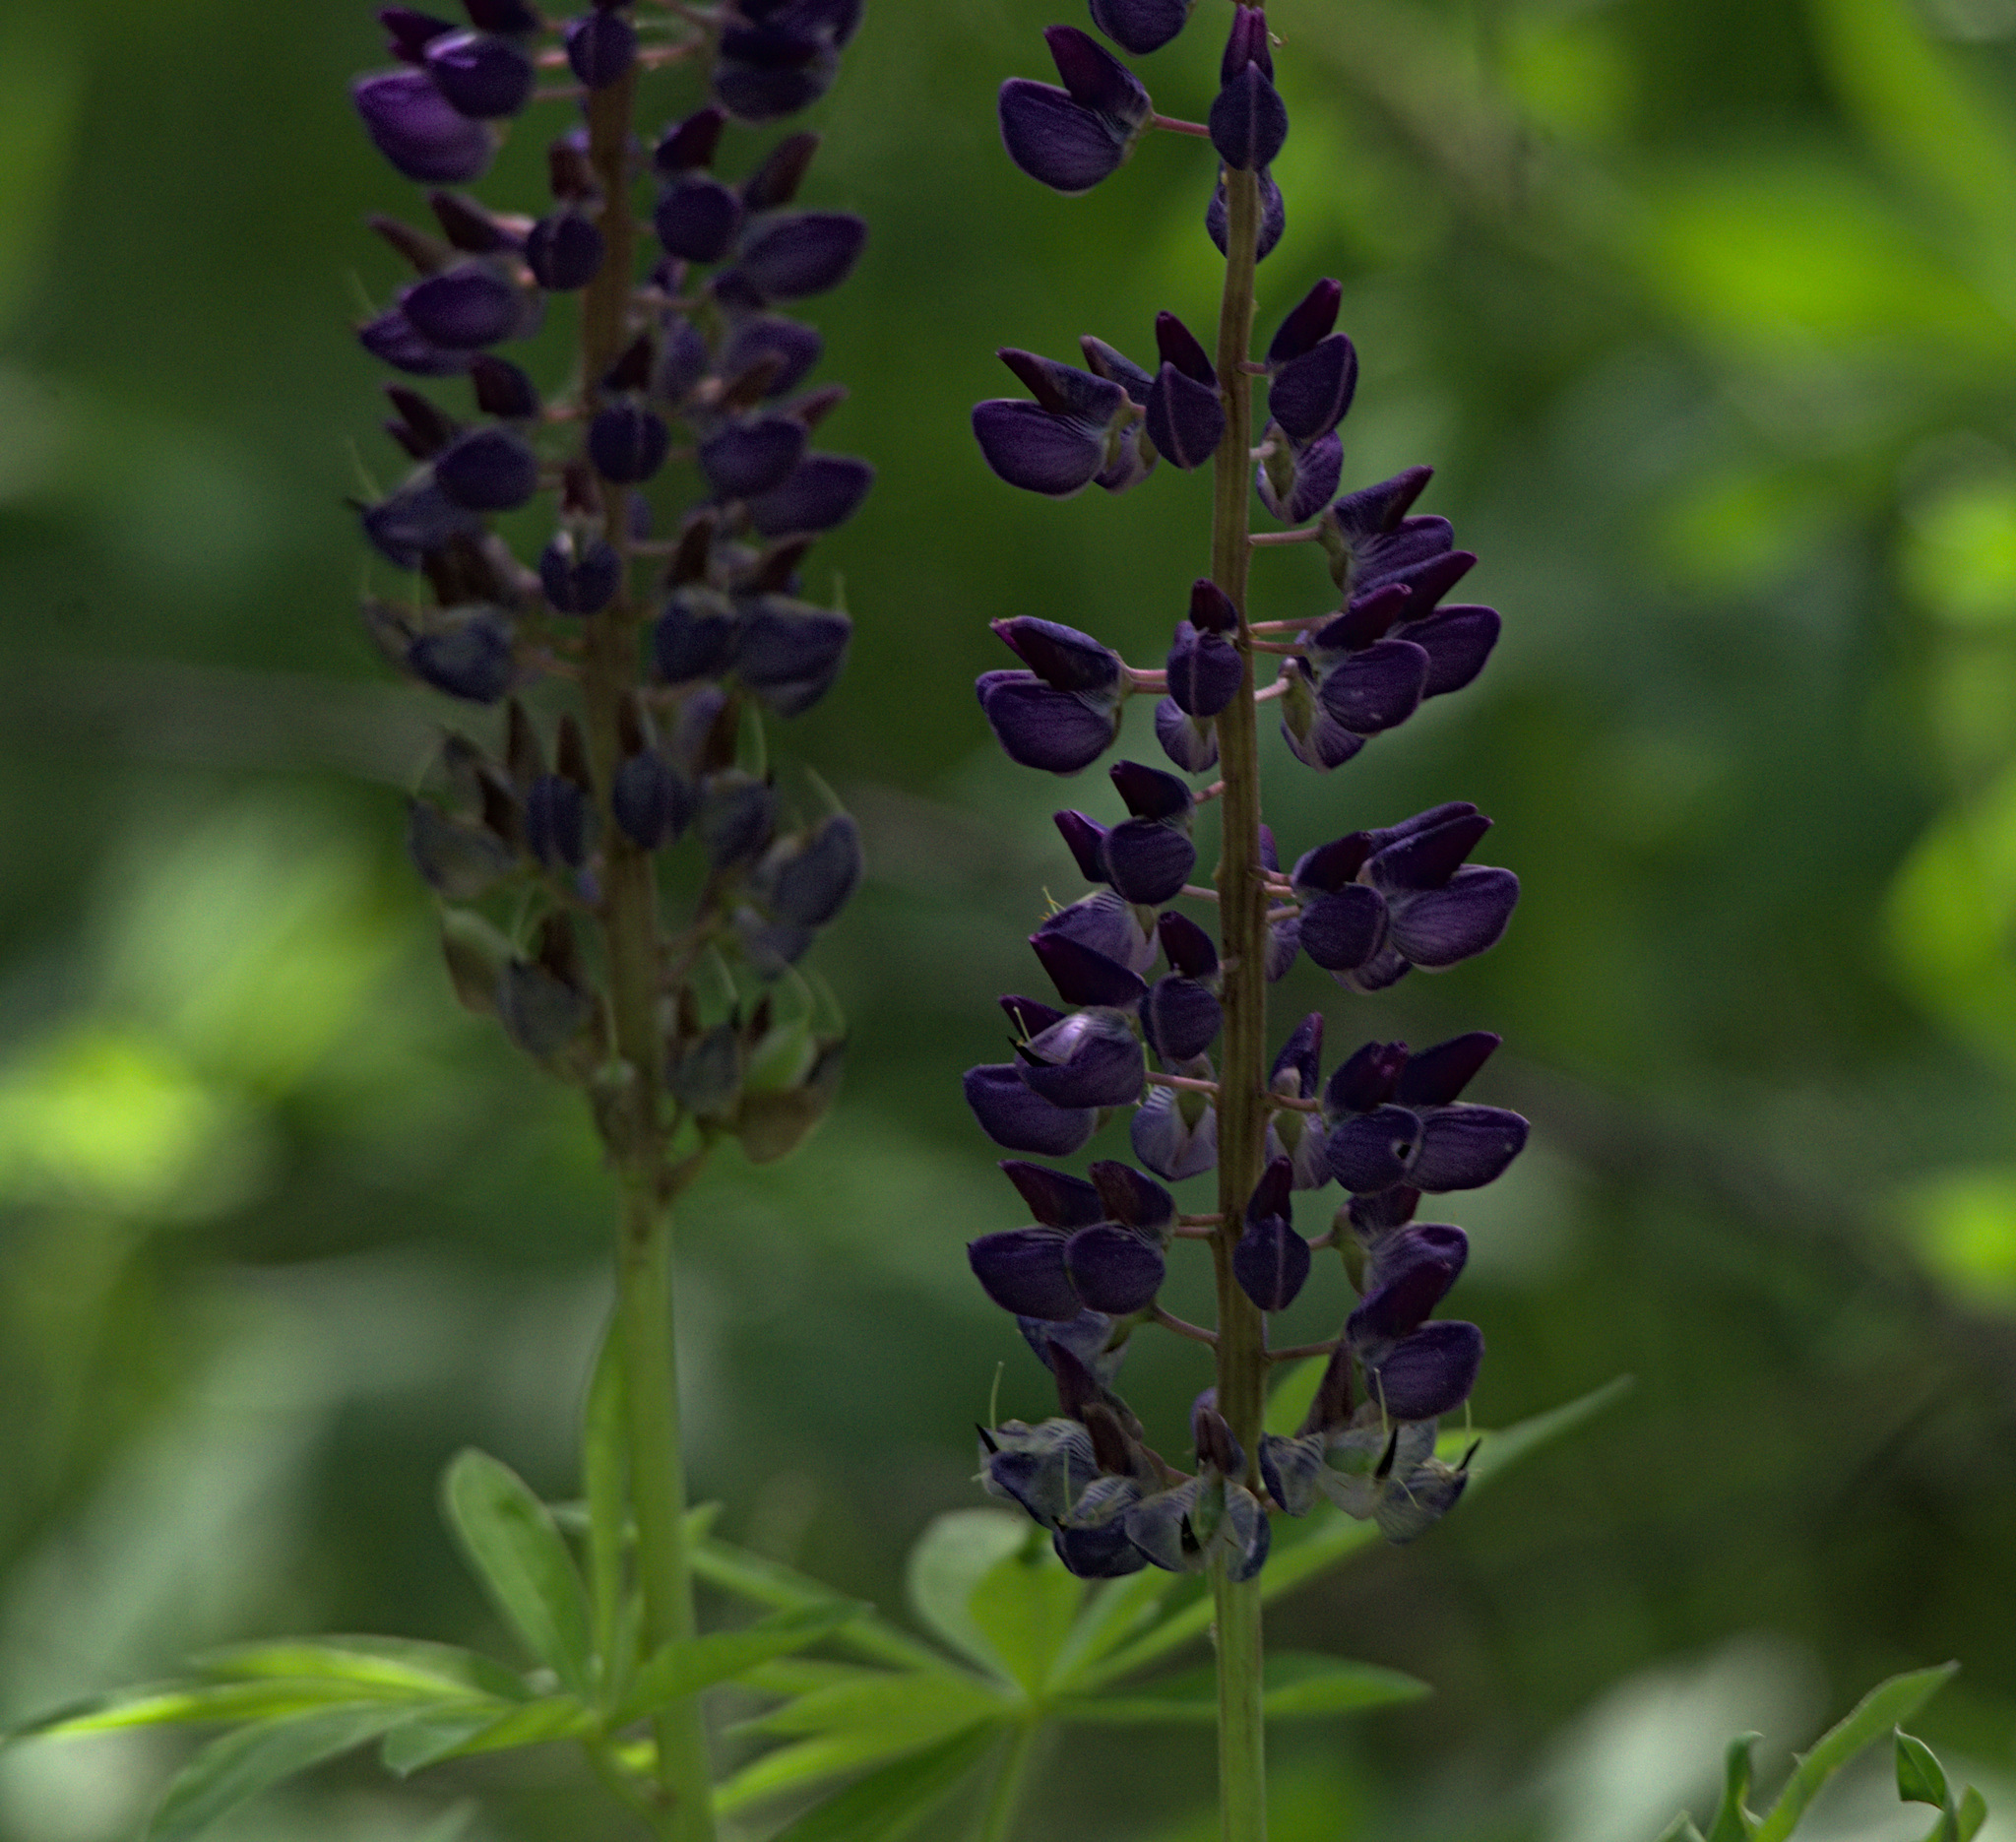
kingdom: Plantae
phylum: Tracheophyta
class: Magnoliopsida
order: Fabales
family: Fabaceae
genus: Lupinus
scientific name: Lupinus polyphyllus
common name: Garden lupin
